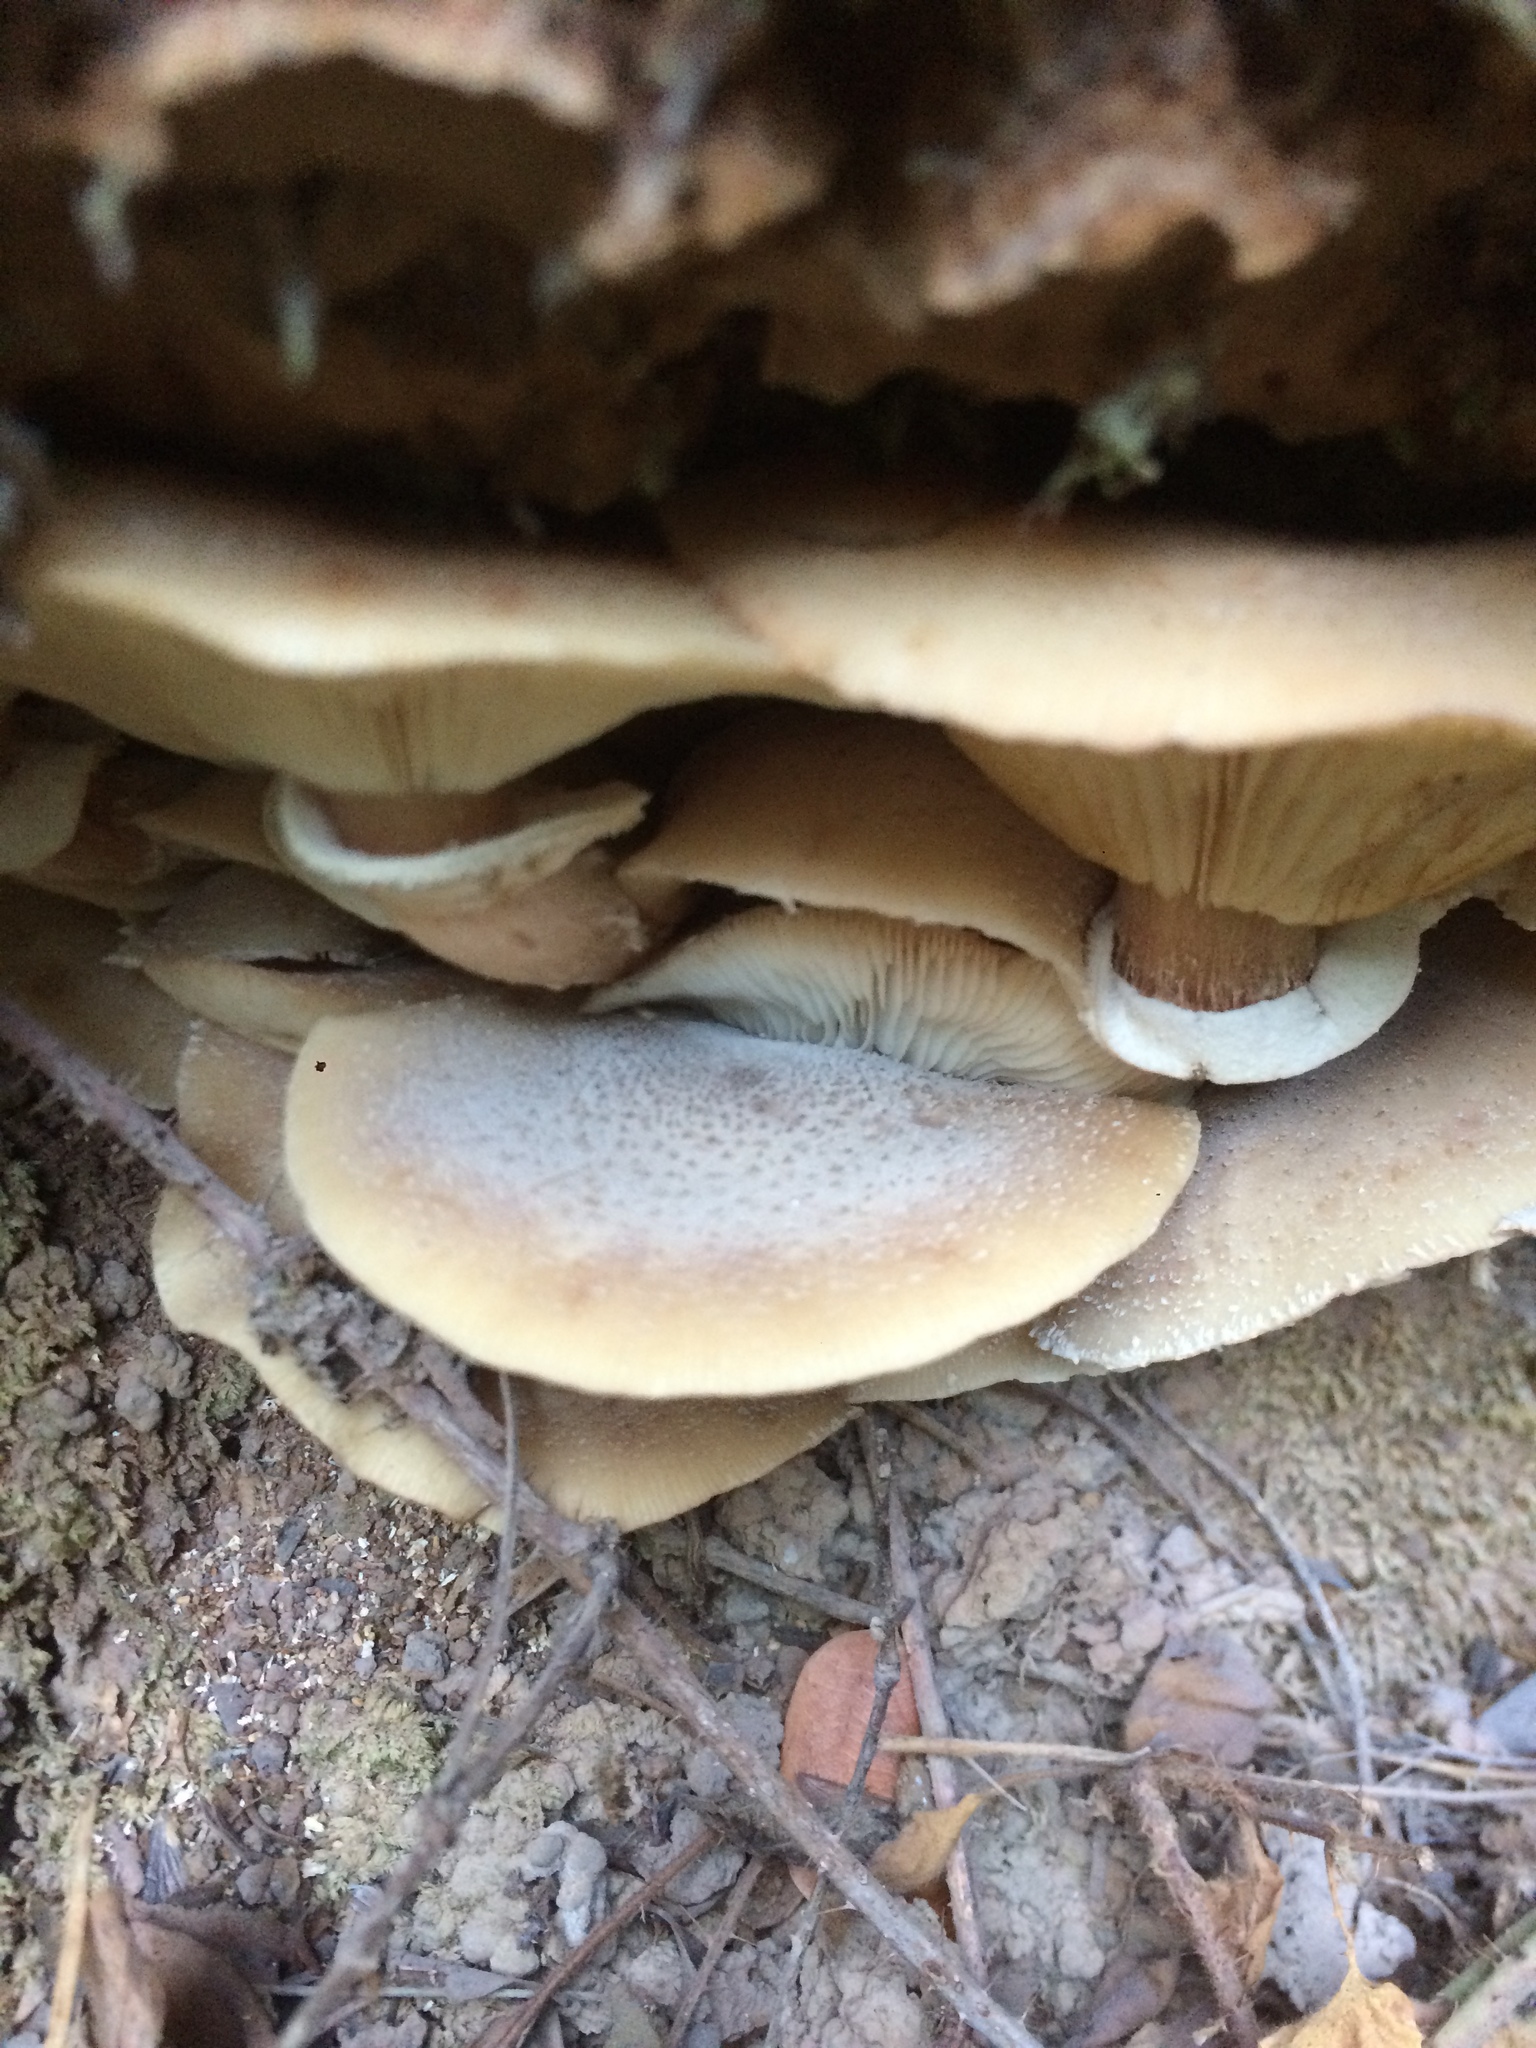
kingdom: Fungi
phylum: Basidiomycota
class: Agaricomycetes
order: Agaricales
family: Physalacriaceae
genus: Armillaria
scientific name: Armillaria mellea
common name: Honey fungus
